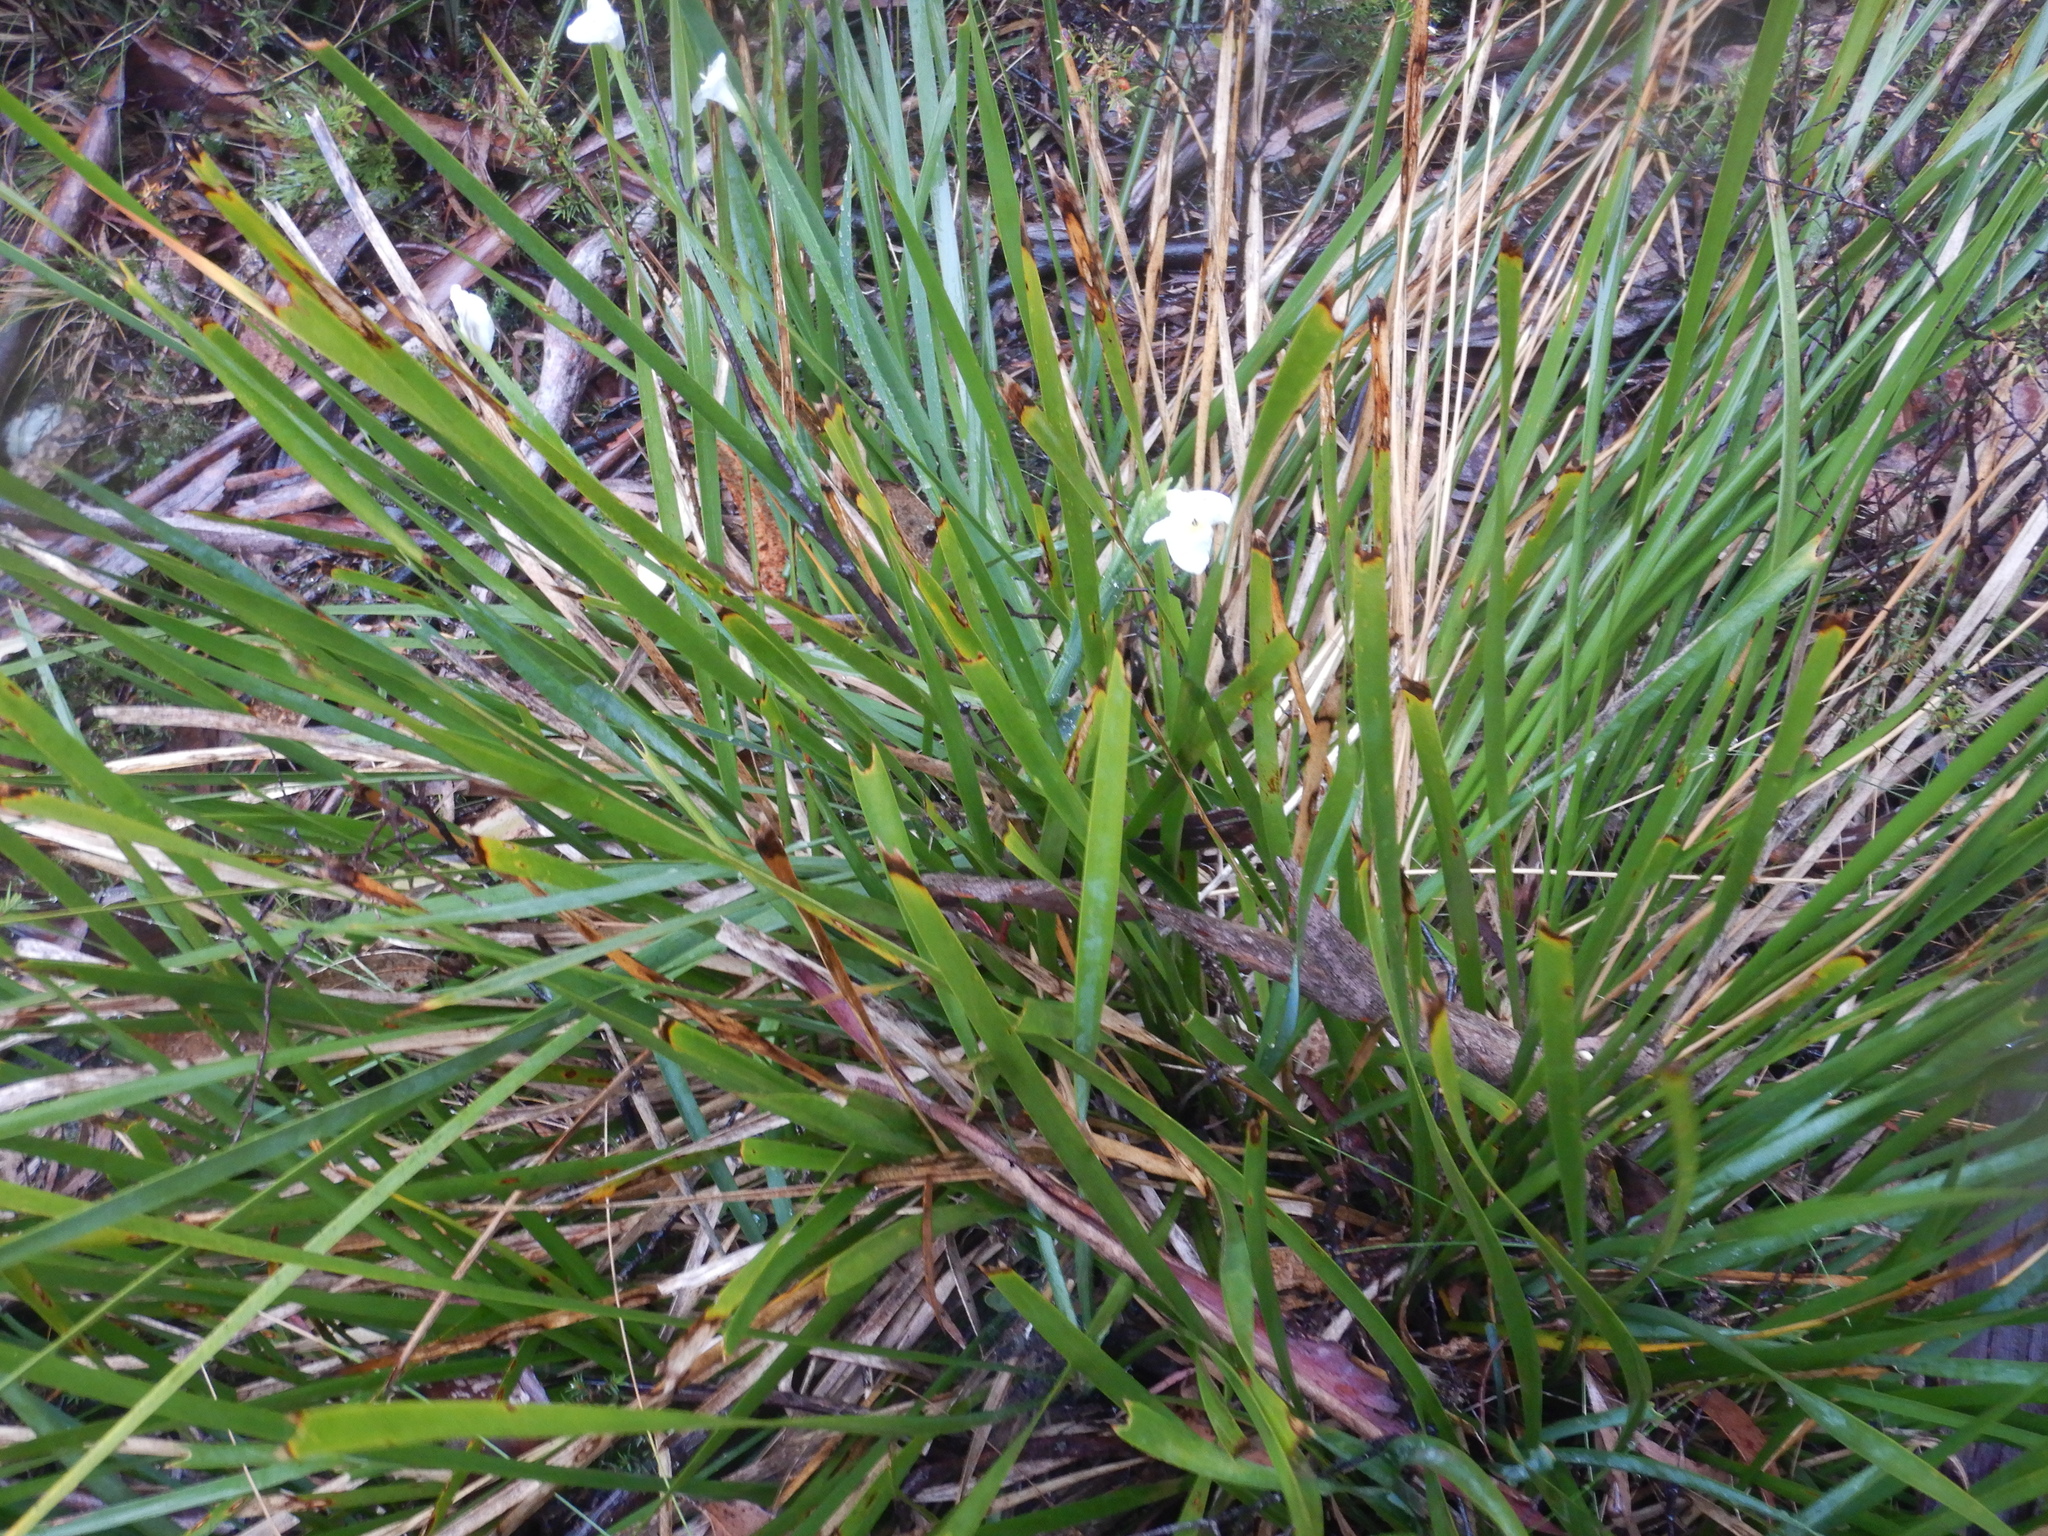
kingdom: Plantae
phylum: Tracheophyta
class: Liliopsida
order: Asparagales
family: Iridaceae
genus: Diplarrena
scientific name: Diplarrena moraea
